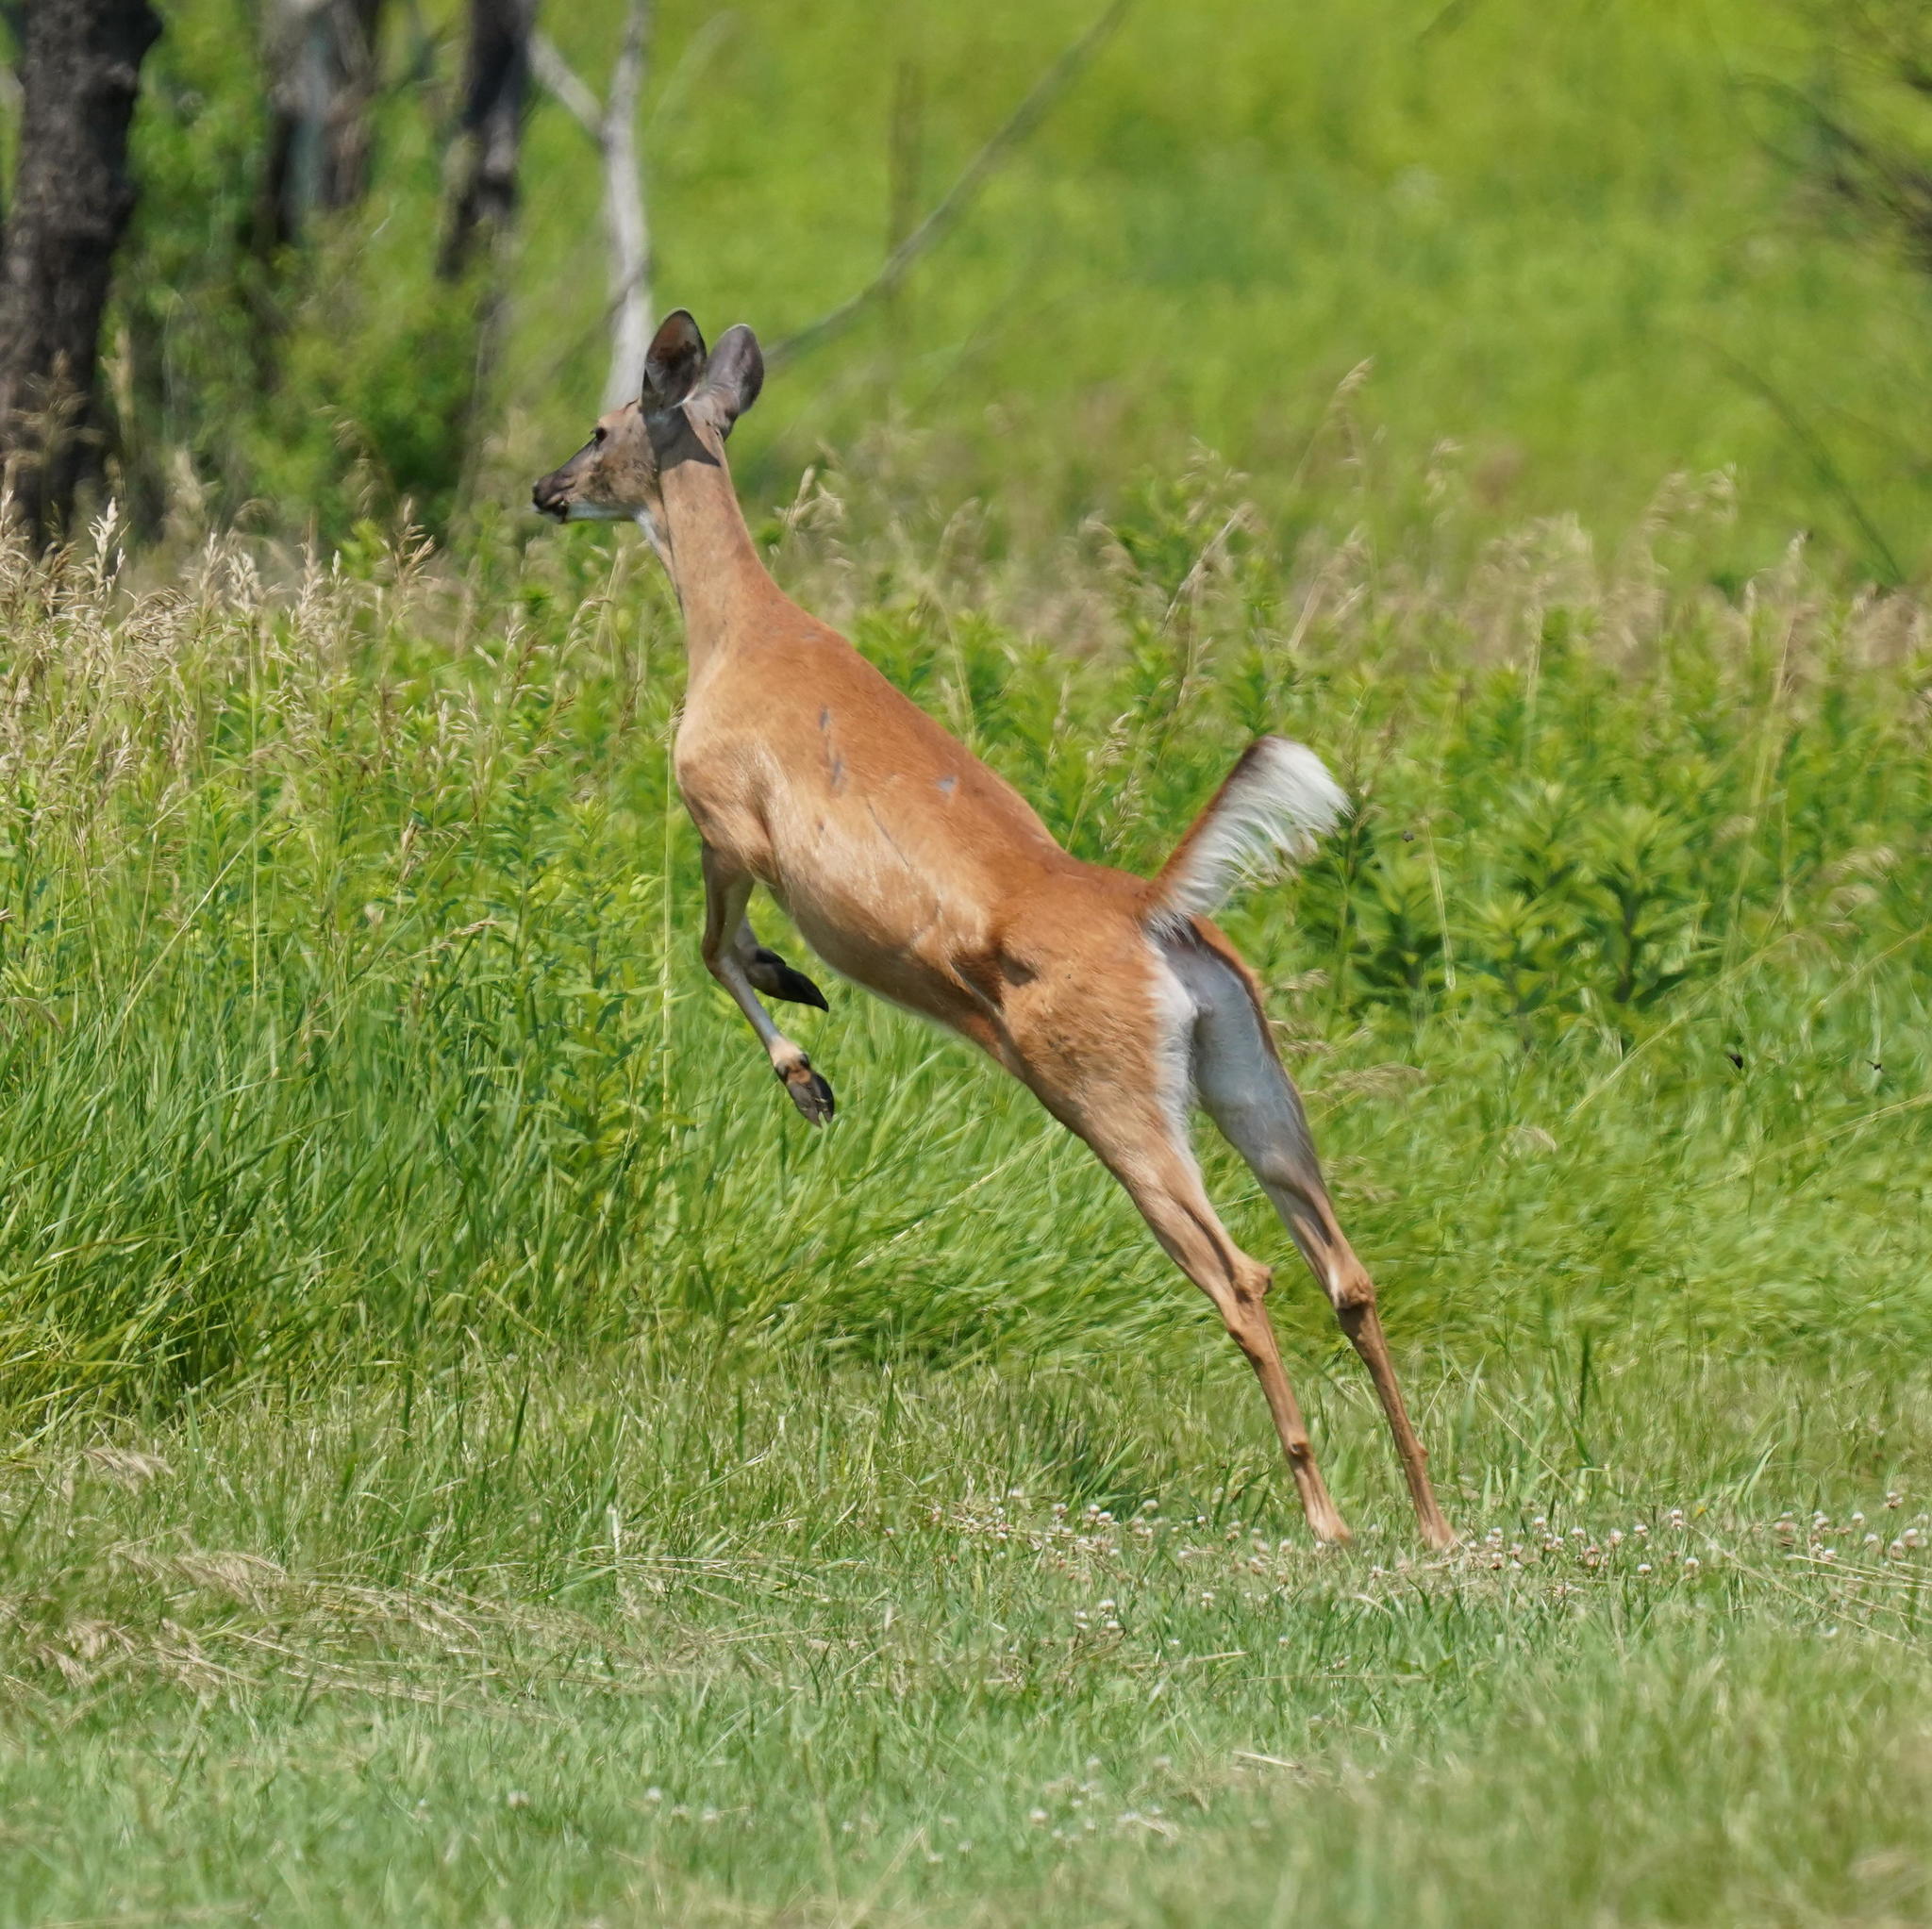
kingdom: Animalia
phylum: Chordata
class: Mammalia
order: Artiodactyla
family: Cervidae
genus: Odocoileus
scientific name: Odocoileus virginianus
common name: White-tailed deer
